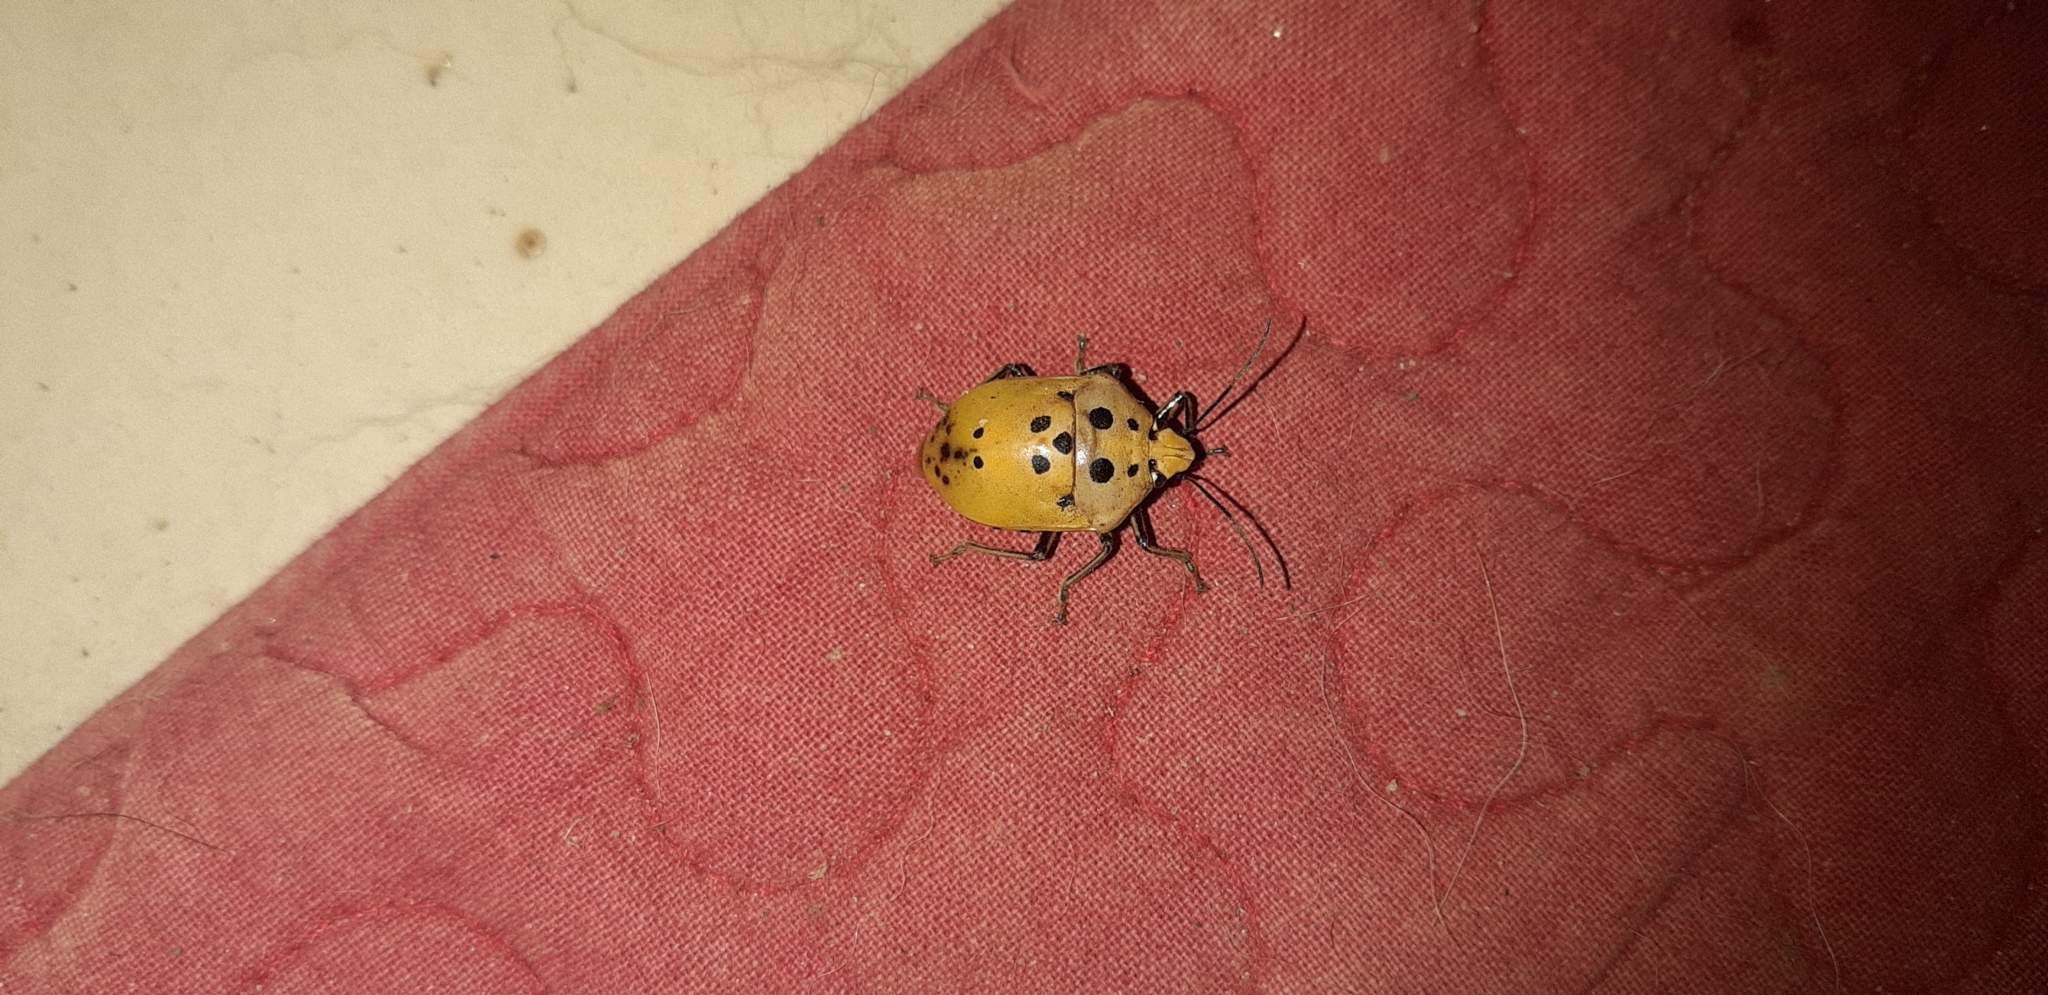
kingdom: Animalia
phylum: Arthropoda
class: Insecta
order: Hemiptera
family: Scutelleridae
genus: Augocoris
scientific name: Augocoris gomesii
